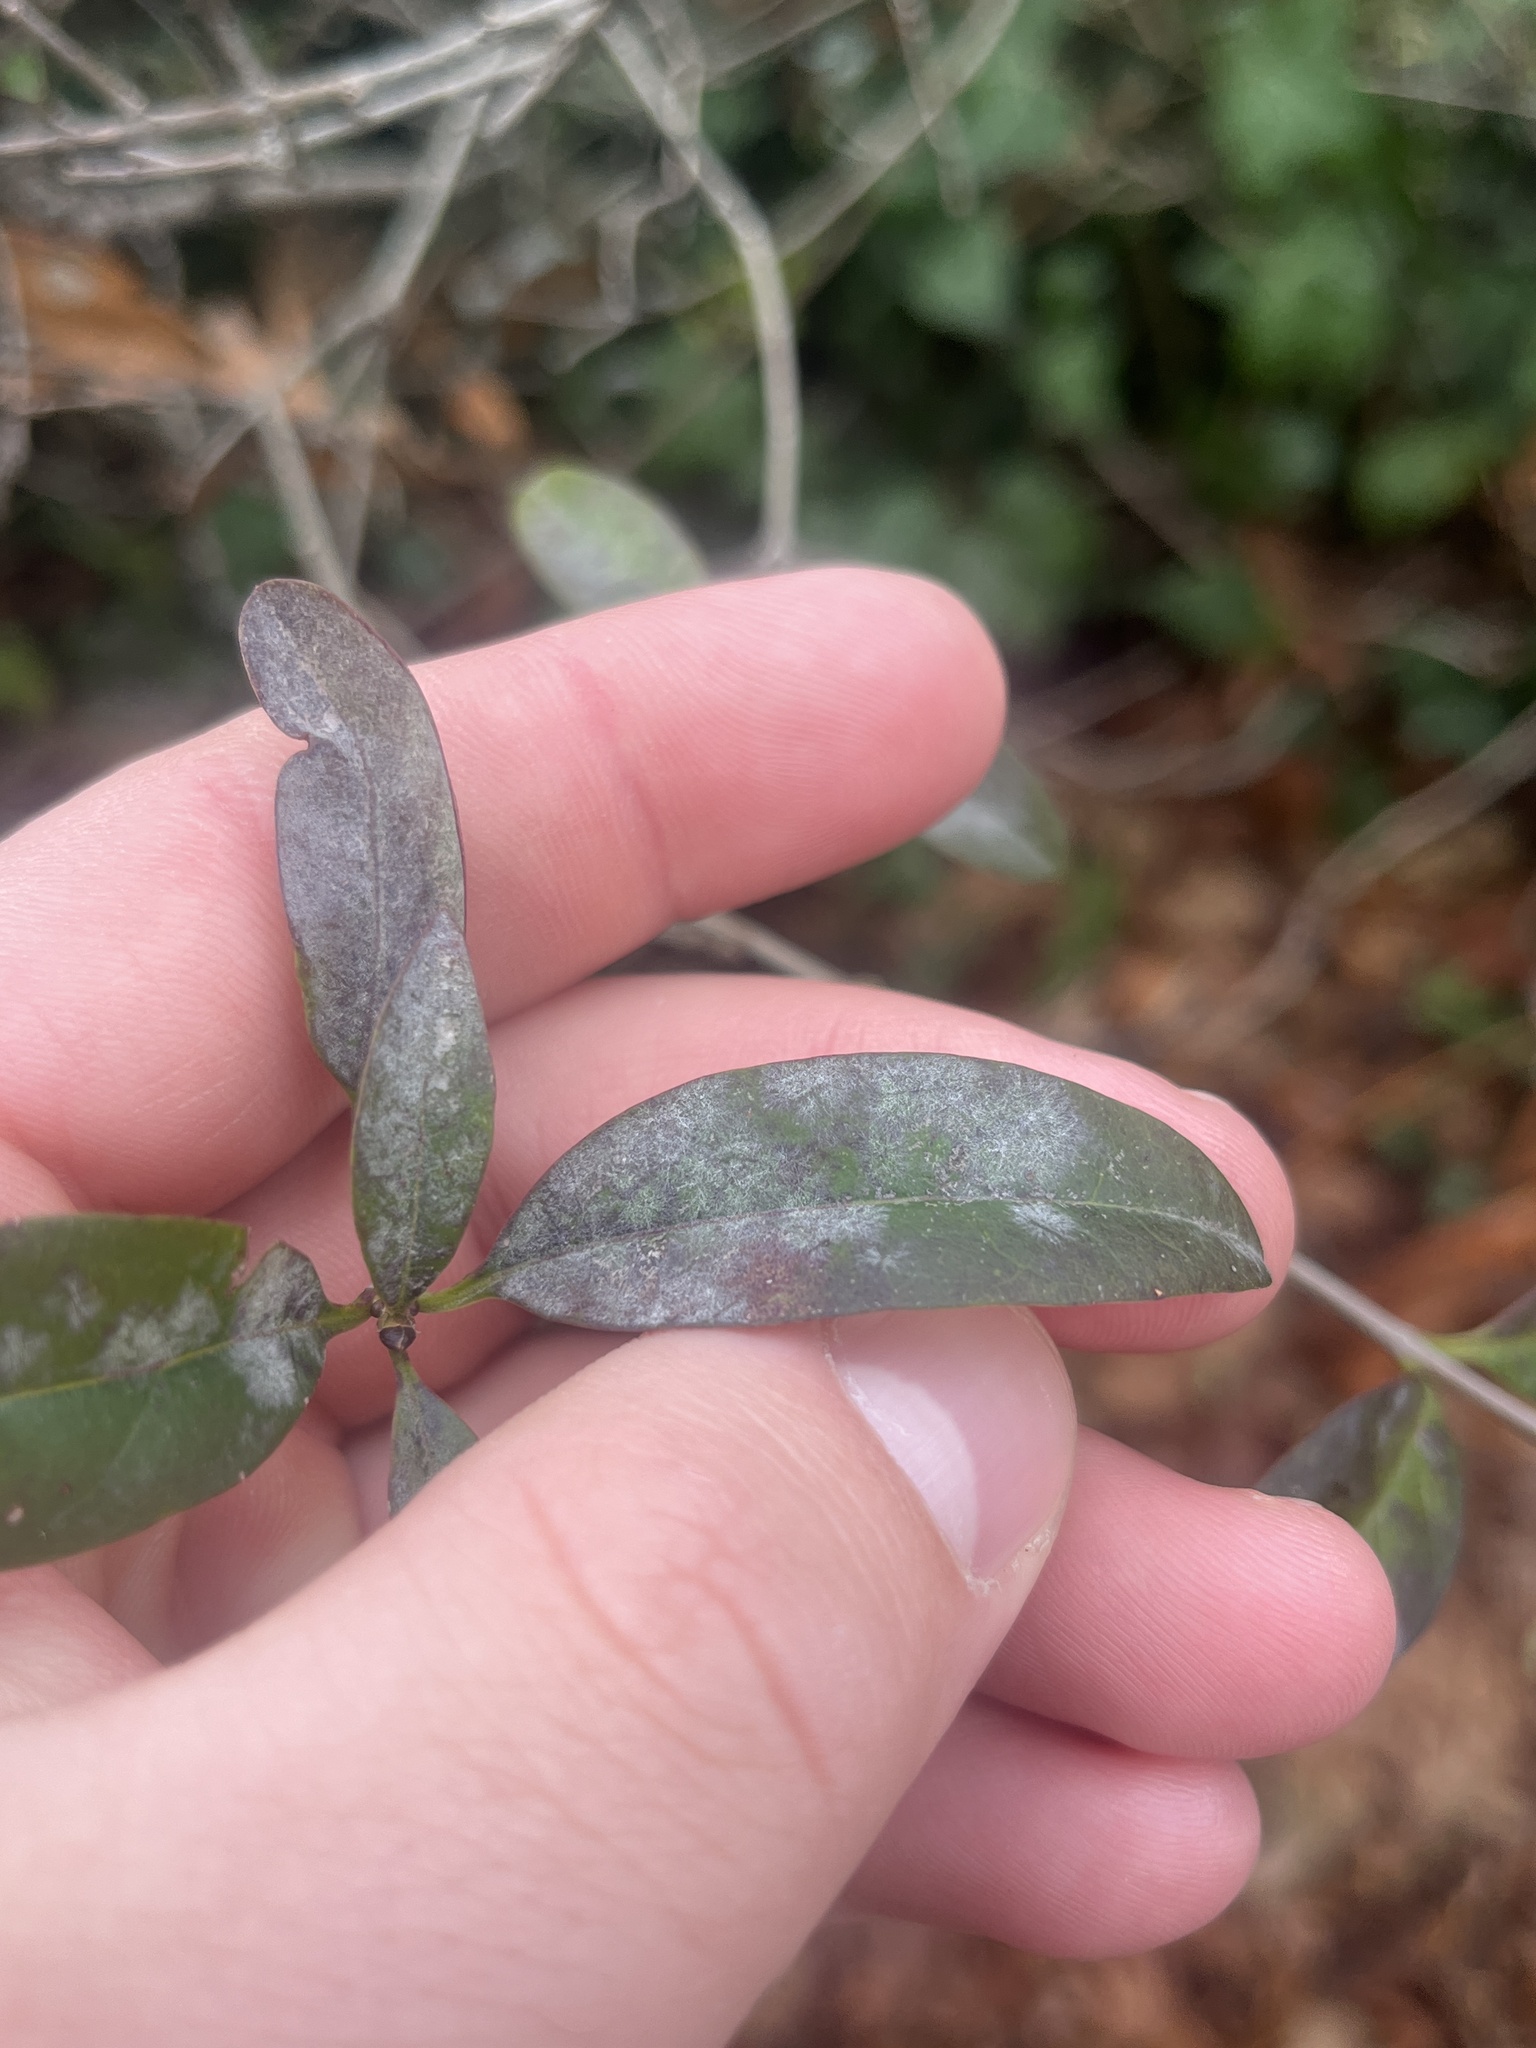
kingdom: Fungi
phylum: Ascomycota
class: Leotiomycetes
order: Helotiales
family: Erysiphaceae
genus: Erysiphe
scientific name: Erysiphe syringae
